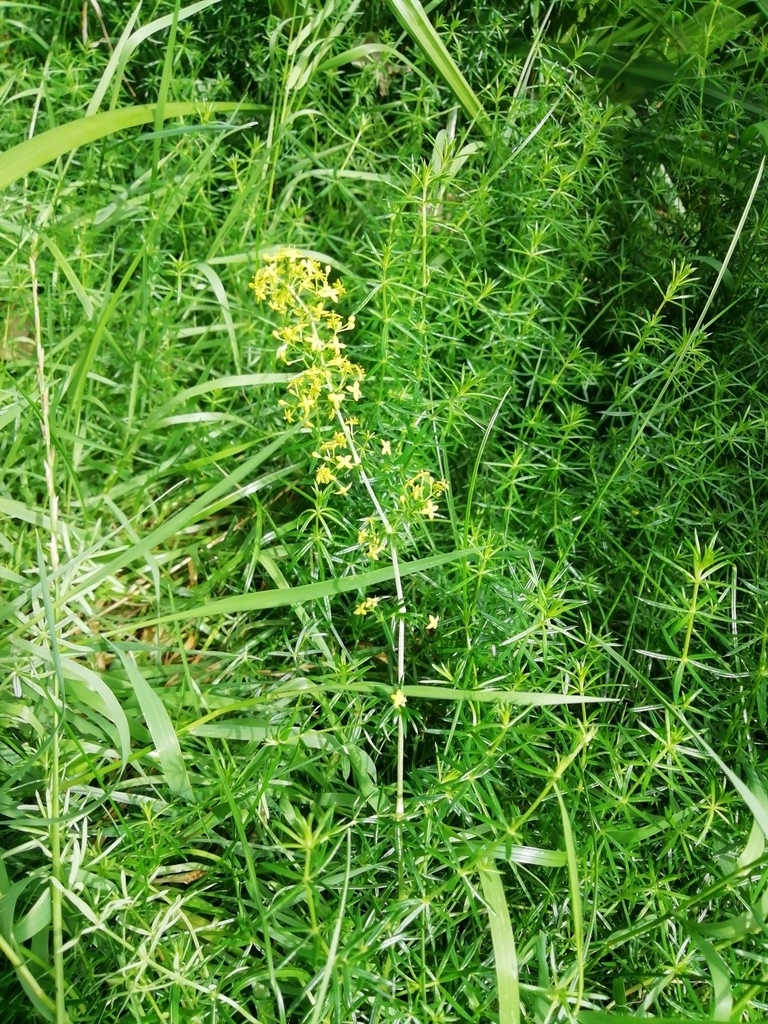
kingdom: Plantae
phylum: Tracheophyta
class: Magnoliopsida
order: Gentianales
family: Rubiaceae
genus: Galium
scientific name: Galium verum
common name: Lady's bedstraw
